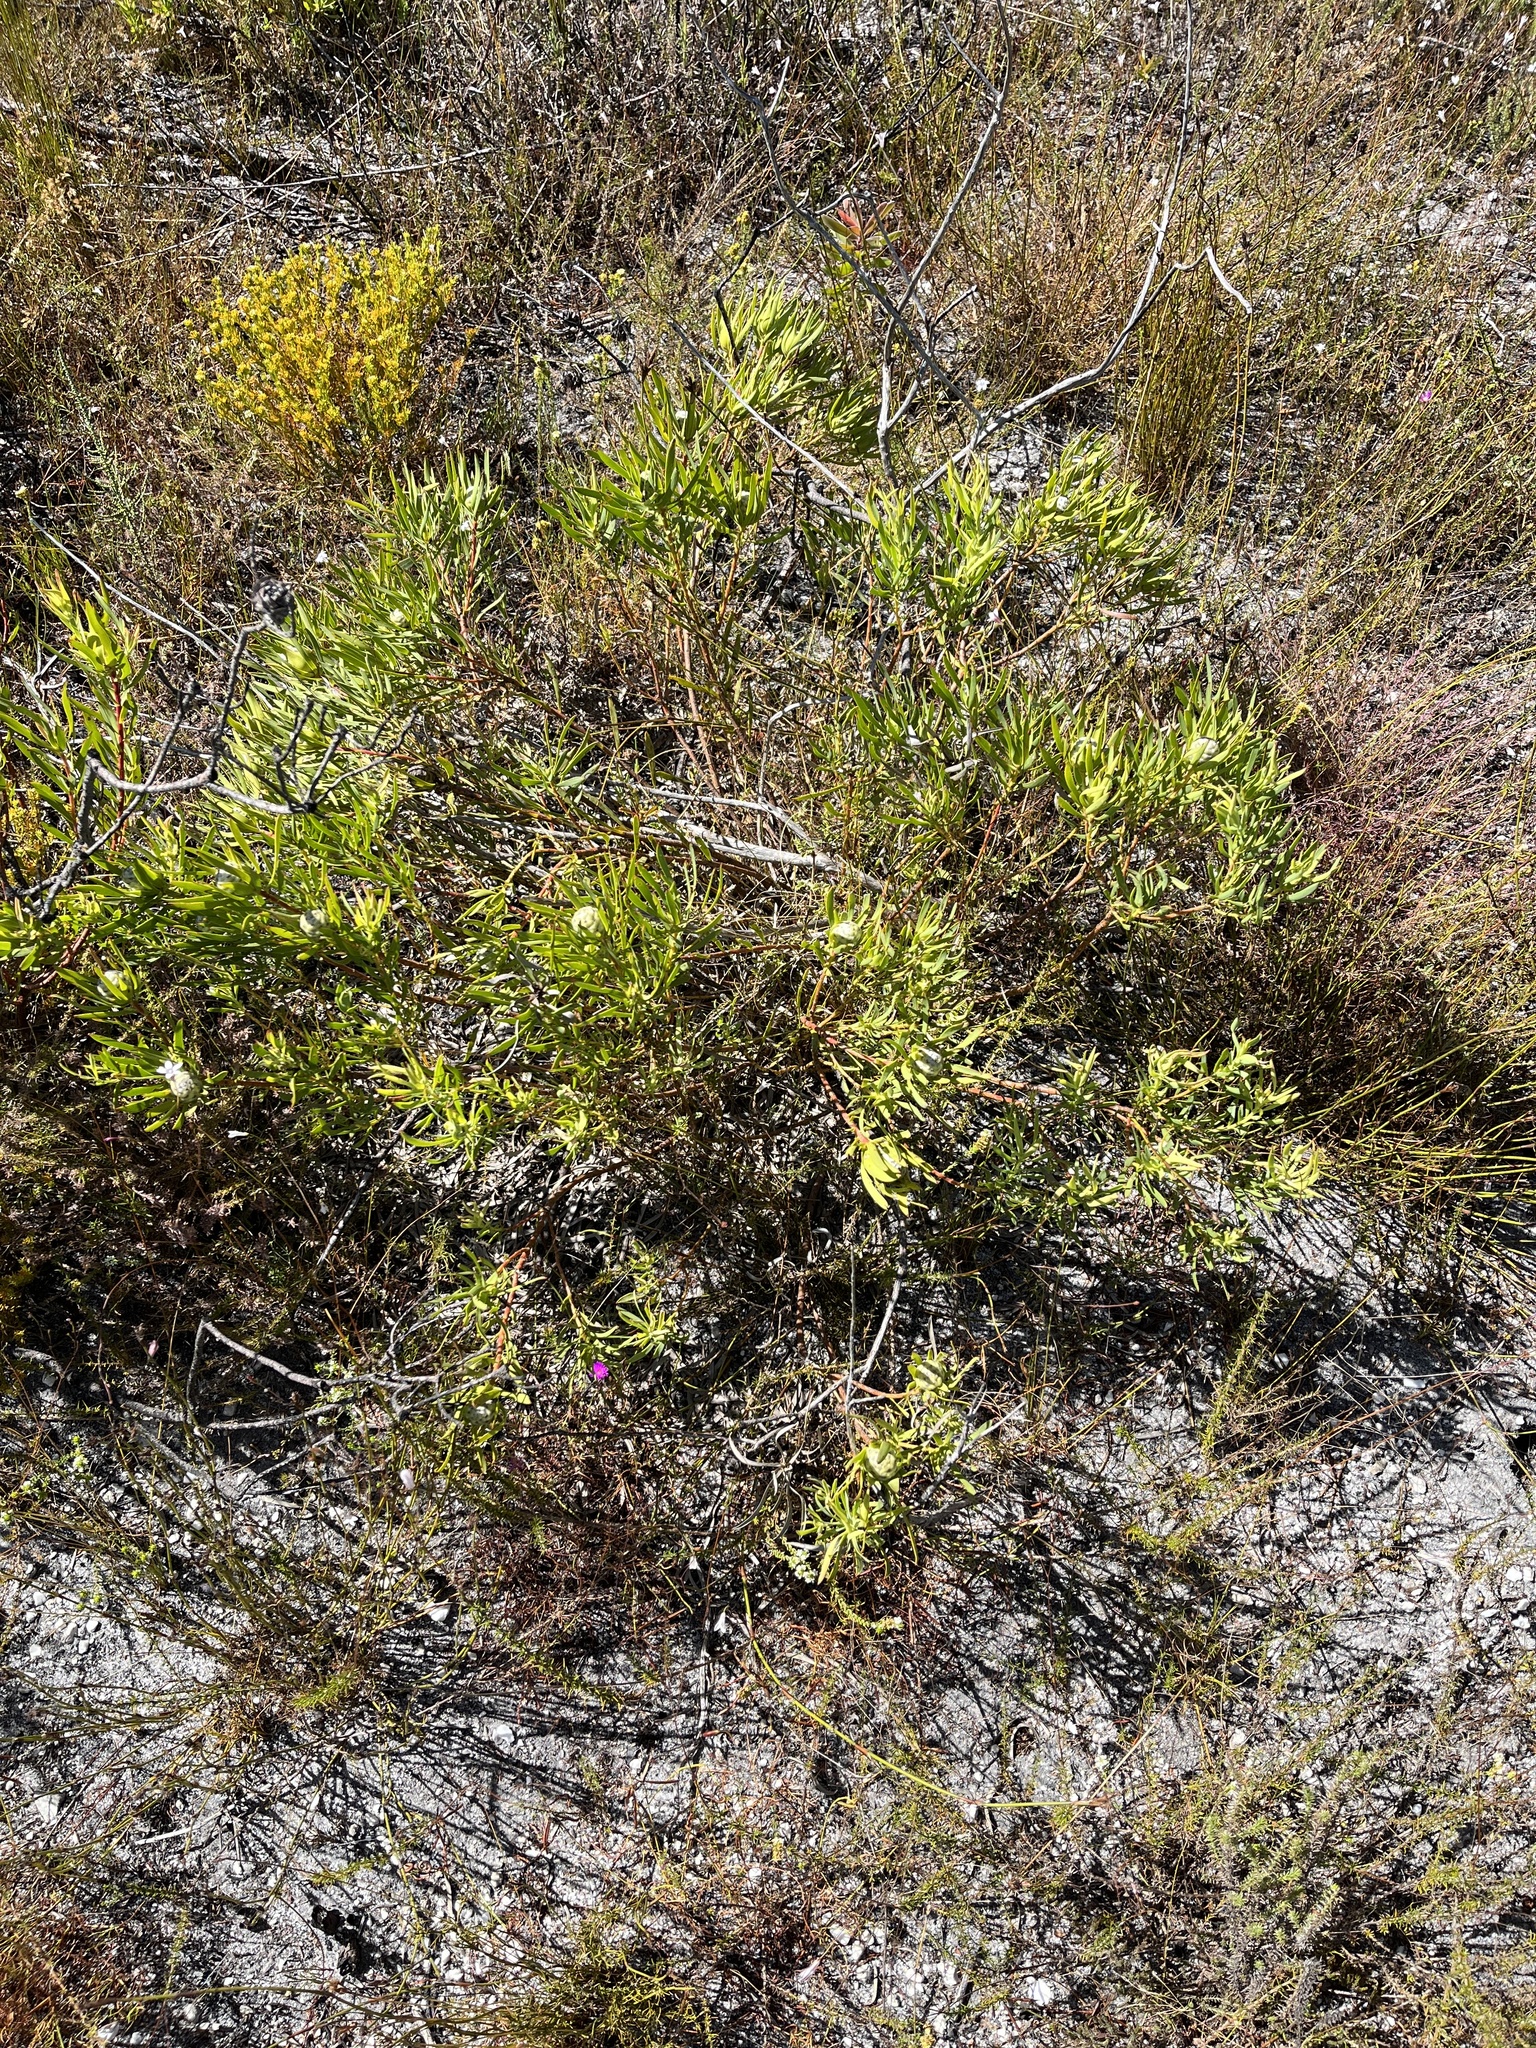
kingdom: Plantae
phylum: Tracheophyta
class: Magnoliopsida
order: Proteales
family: Proteaceae
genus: Leucadendron
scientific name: Leucadendron salignum
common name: Common sunshine conebush
